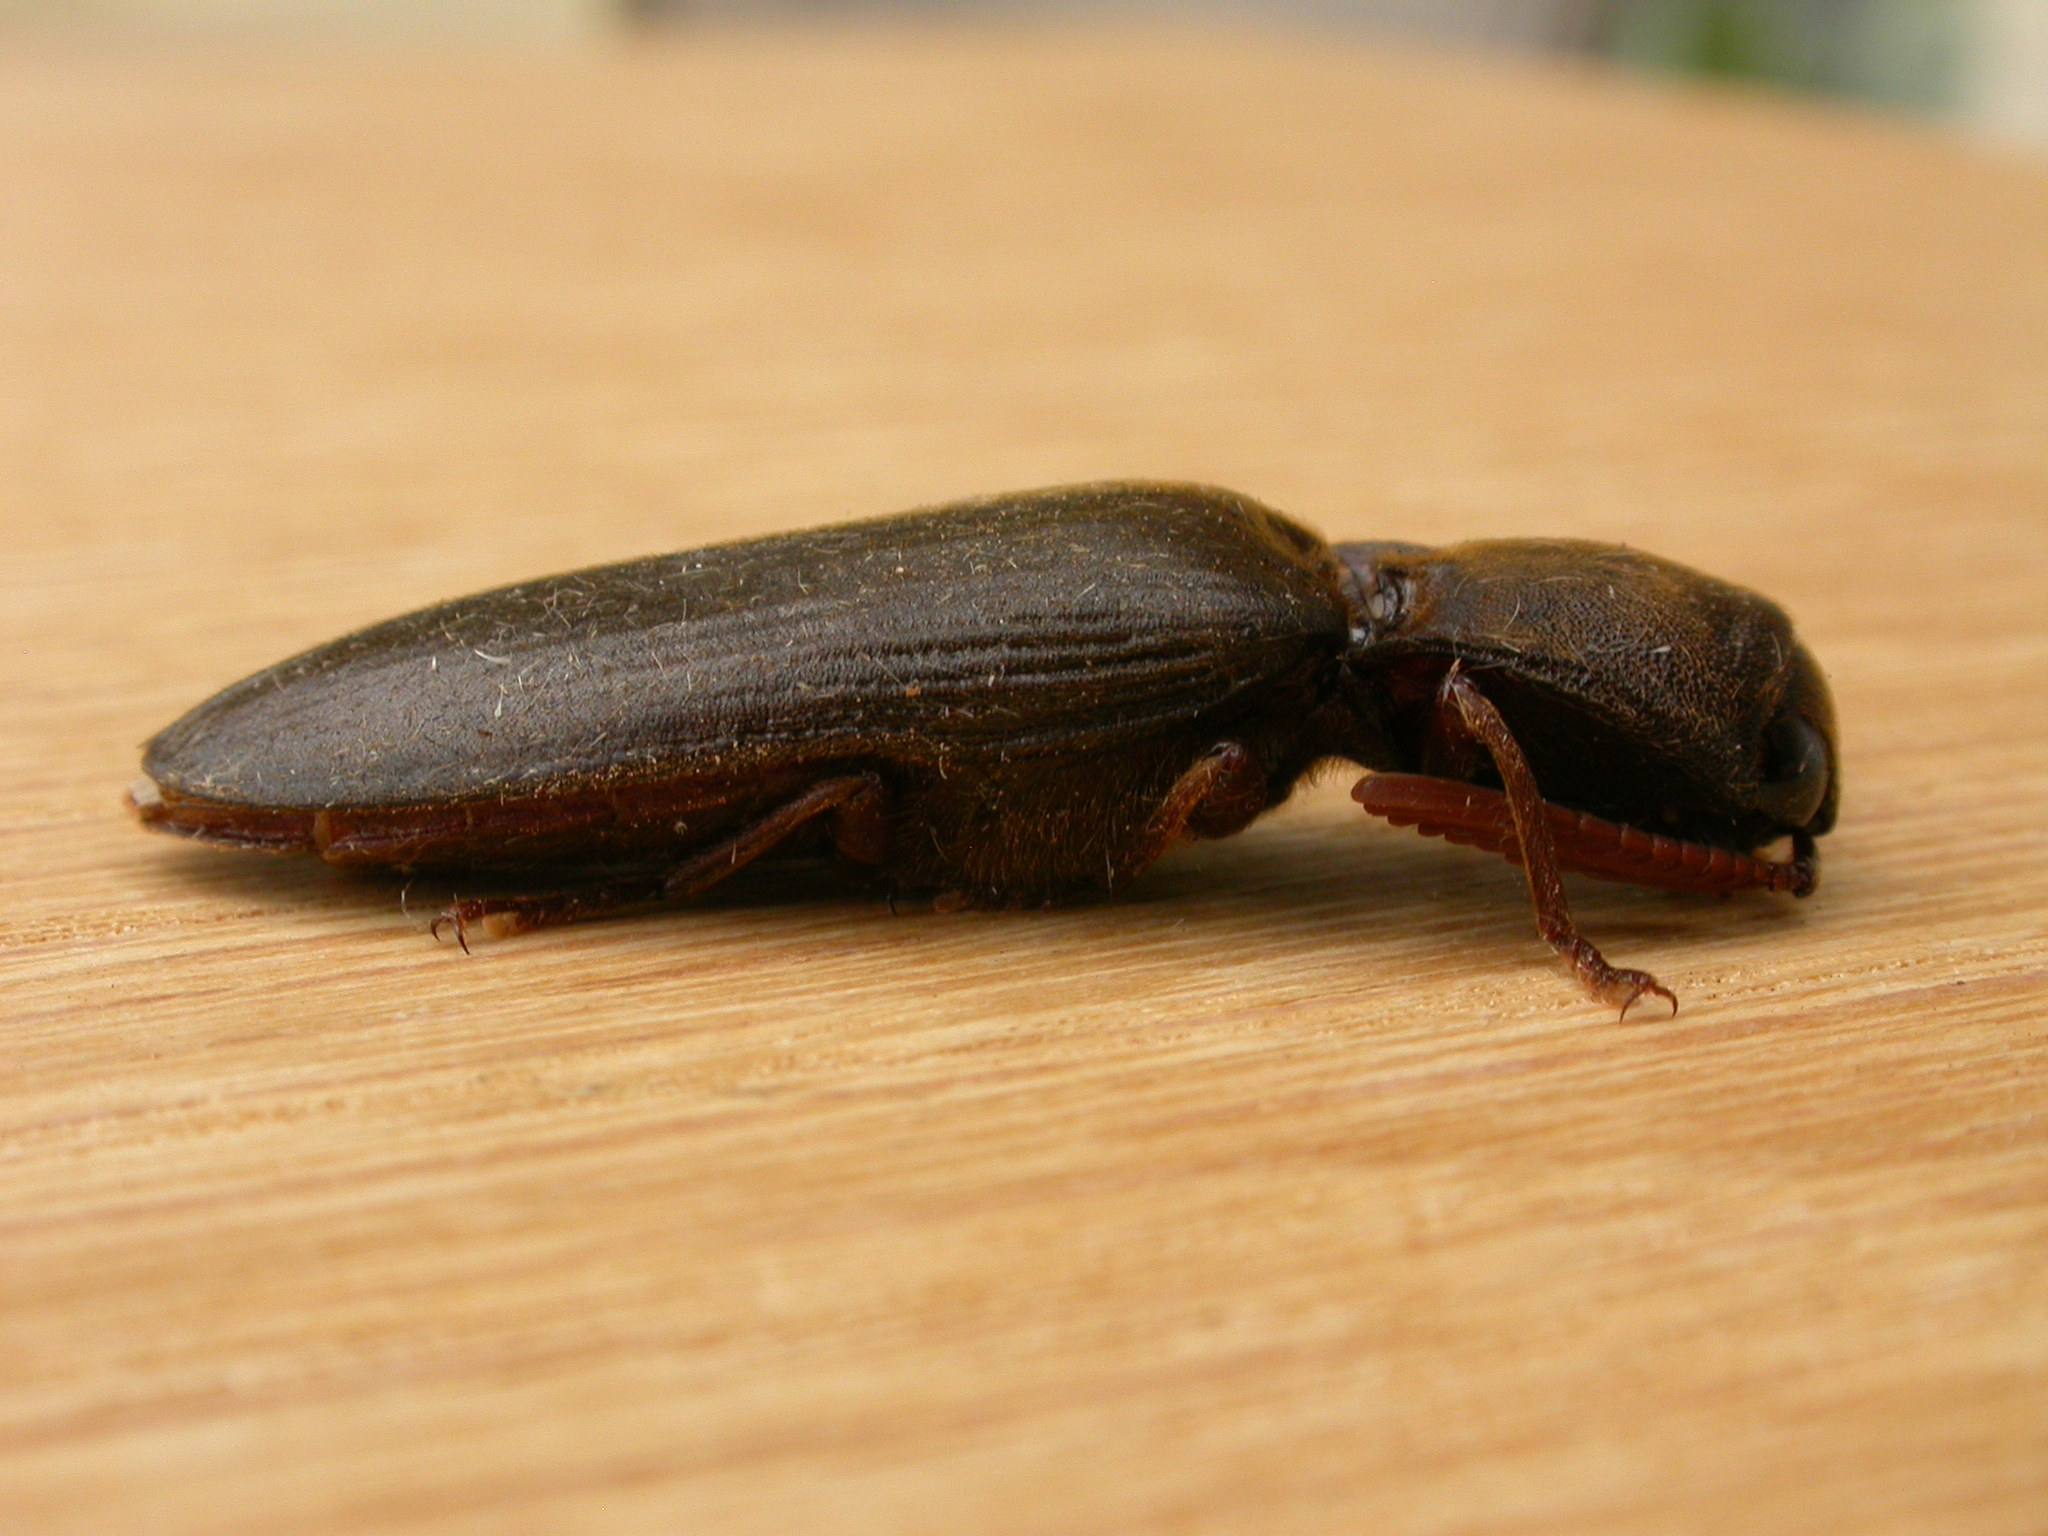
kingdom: Animalia
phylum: Arthropoda
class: Insecta
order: Coleoptera
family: Elateridae
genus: Pseudotetralobus
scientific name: Pseudotetralobus australasiae
